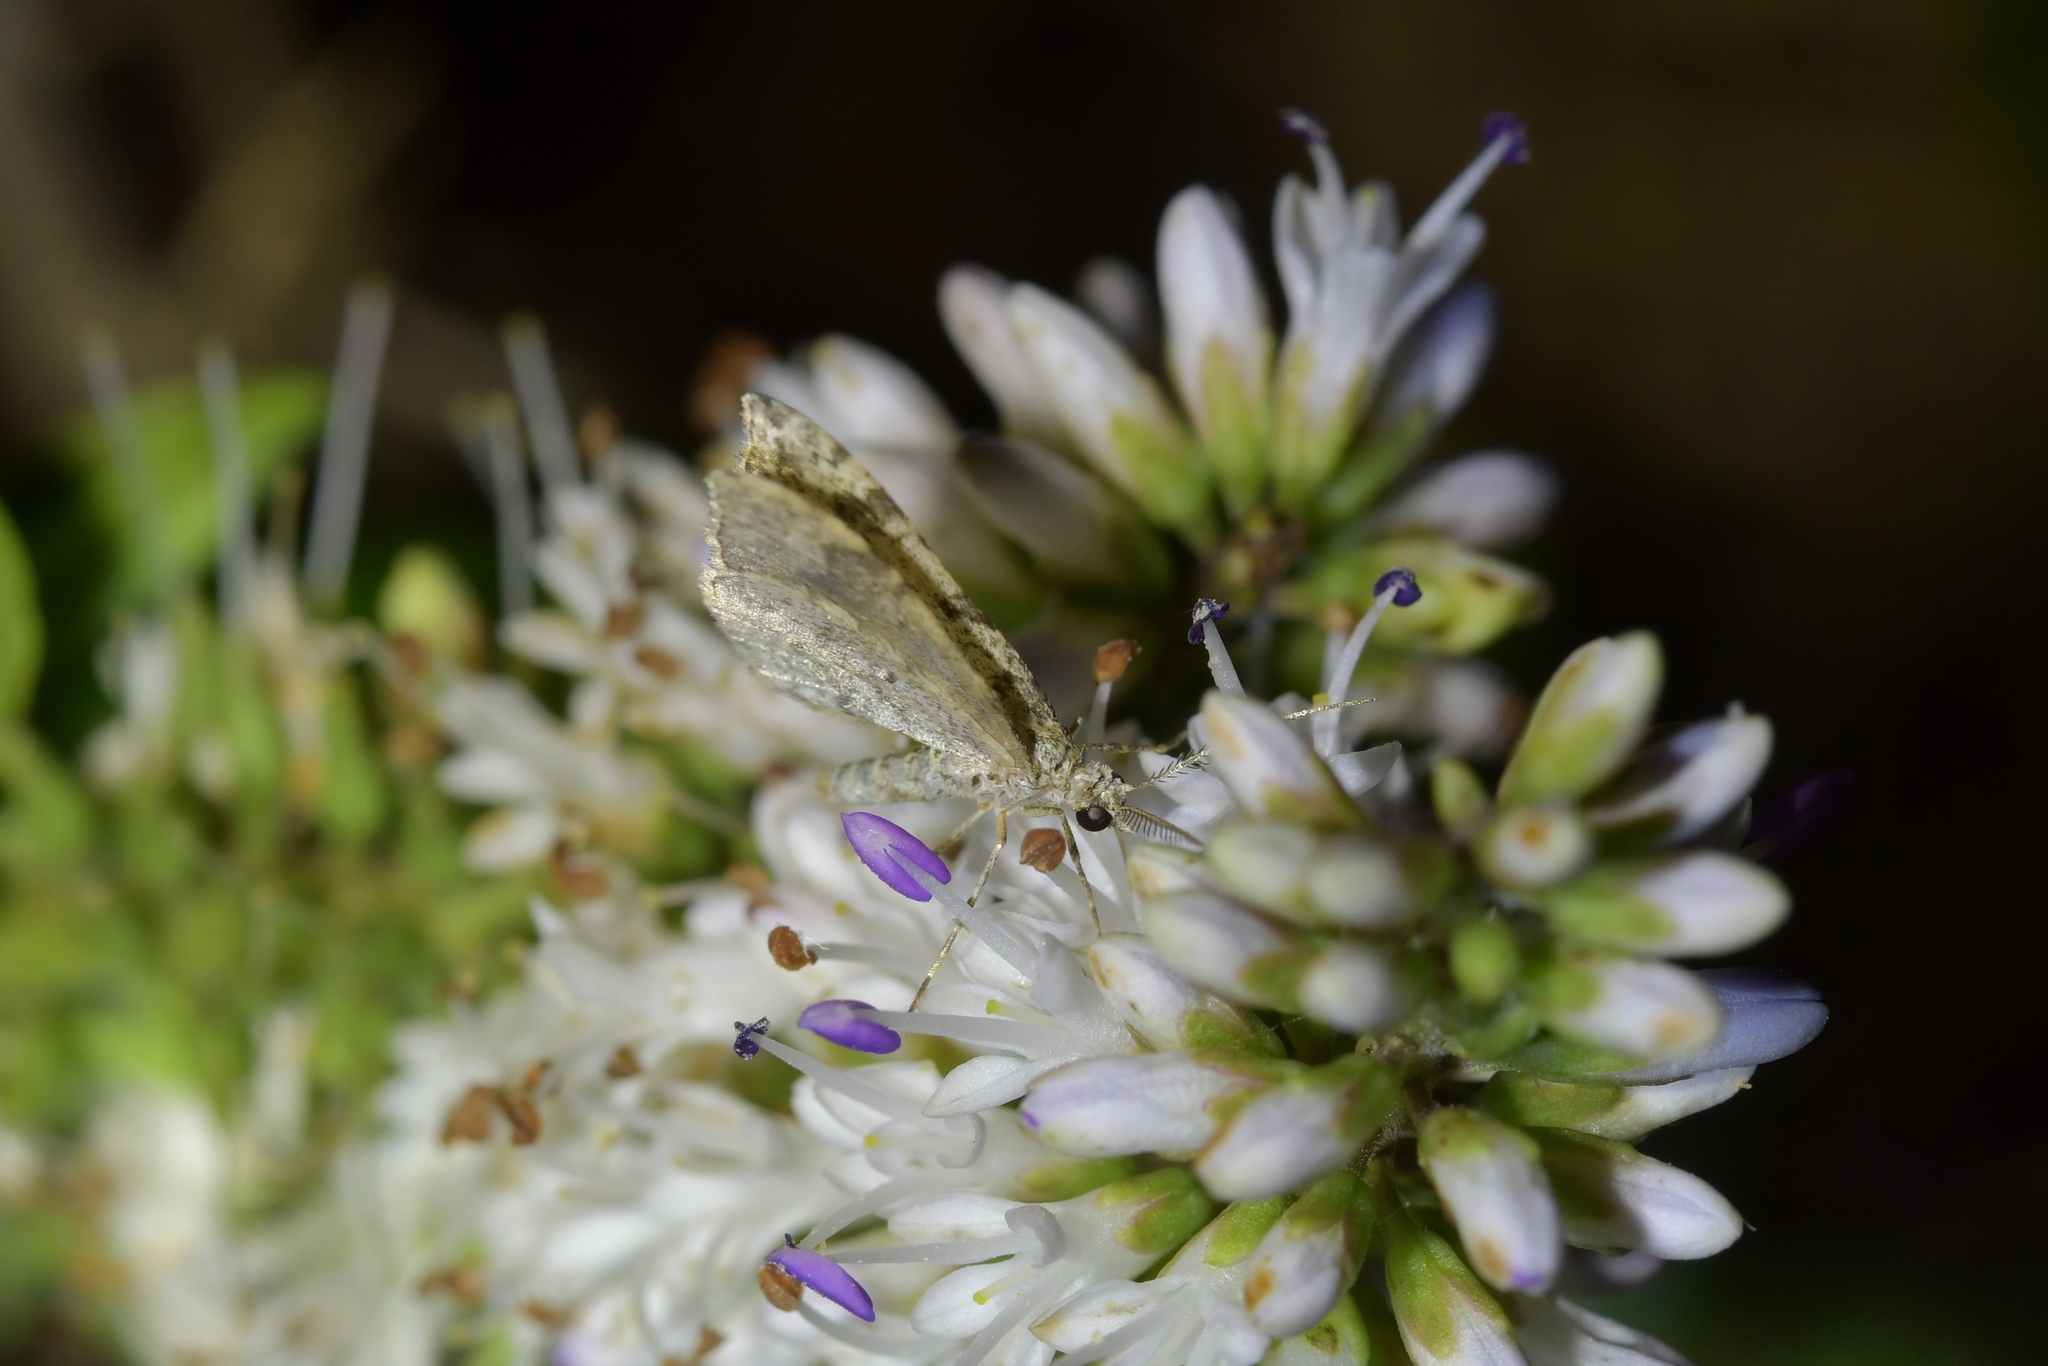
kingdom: Animalia
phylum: Arthropoda
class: Insecta
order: Lepidoptera
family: Geometridae
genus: Helastia
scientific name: Helastia cinerearia
